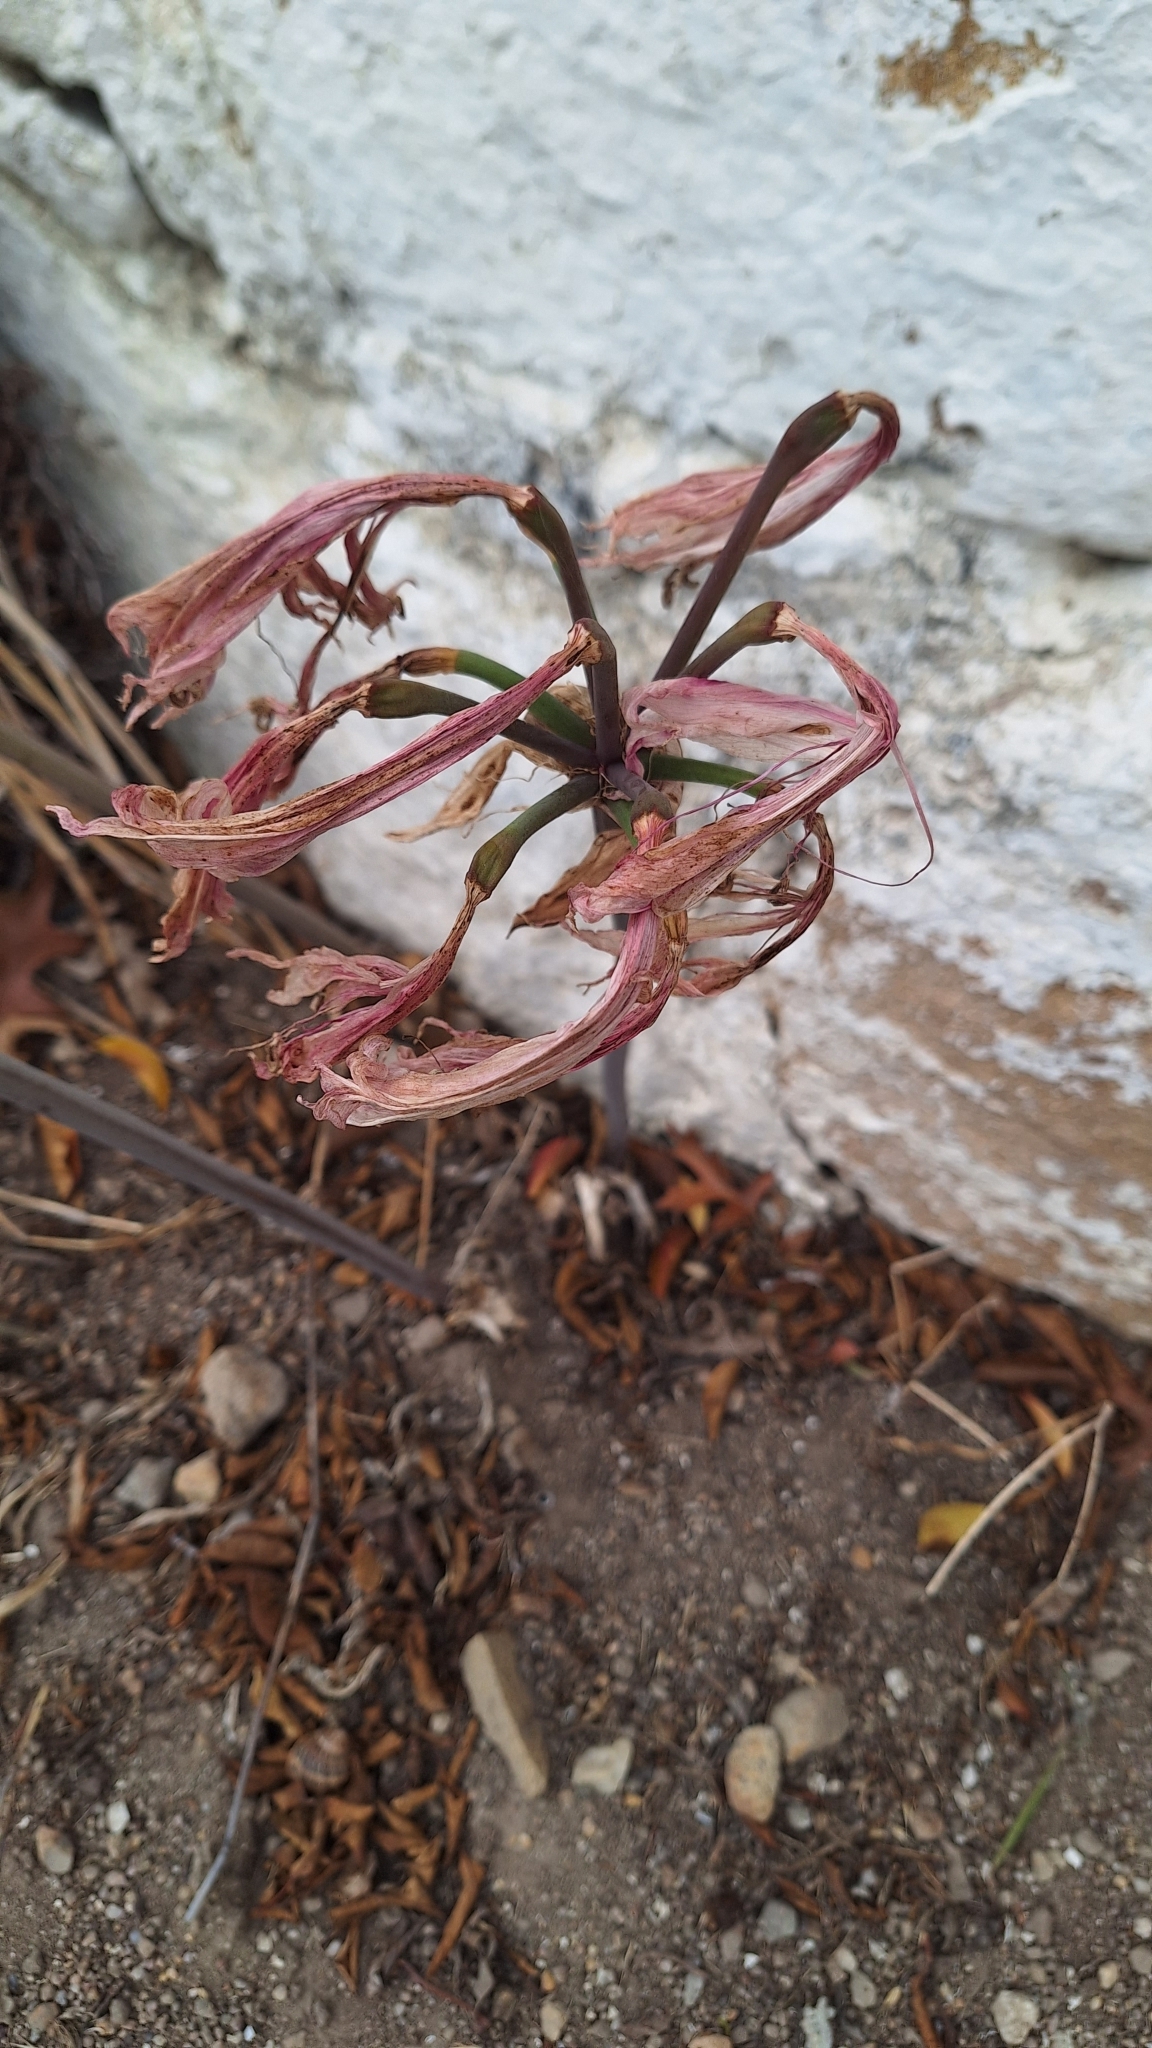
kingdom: Plantae
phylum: Tracheophyta
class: Liliopsida
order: Asparagales
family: Amaryllidaceae
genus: Amaryllis
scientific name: Amaryllis belladonna
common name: Jersey lily
